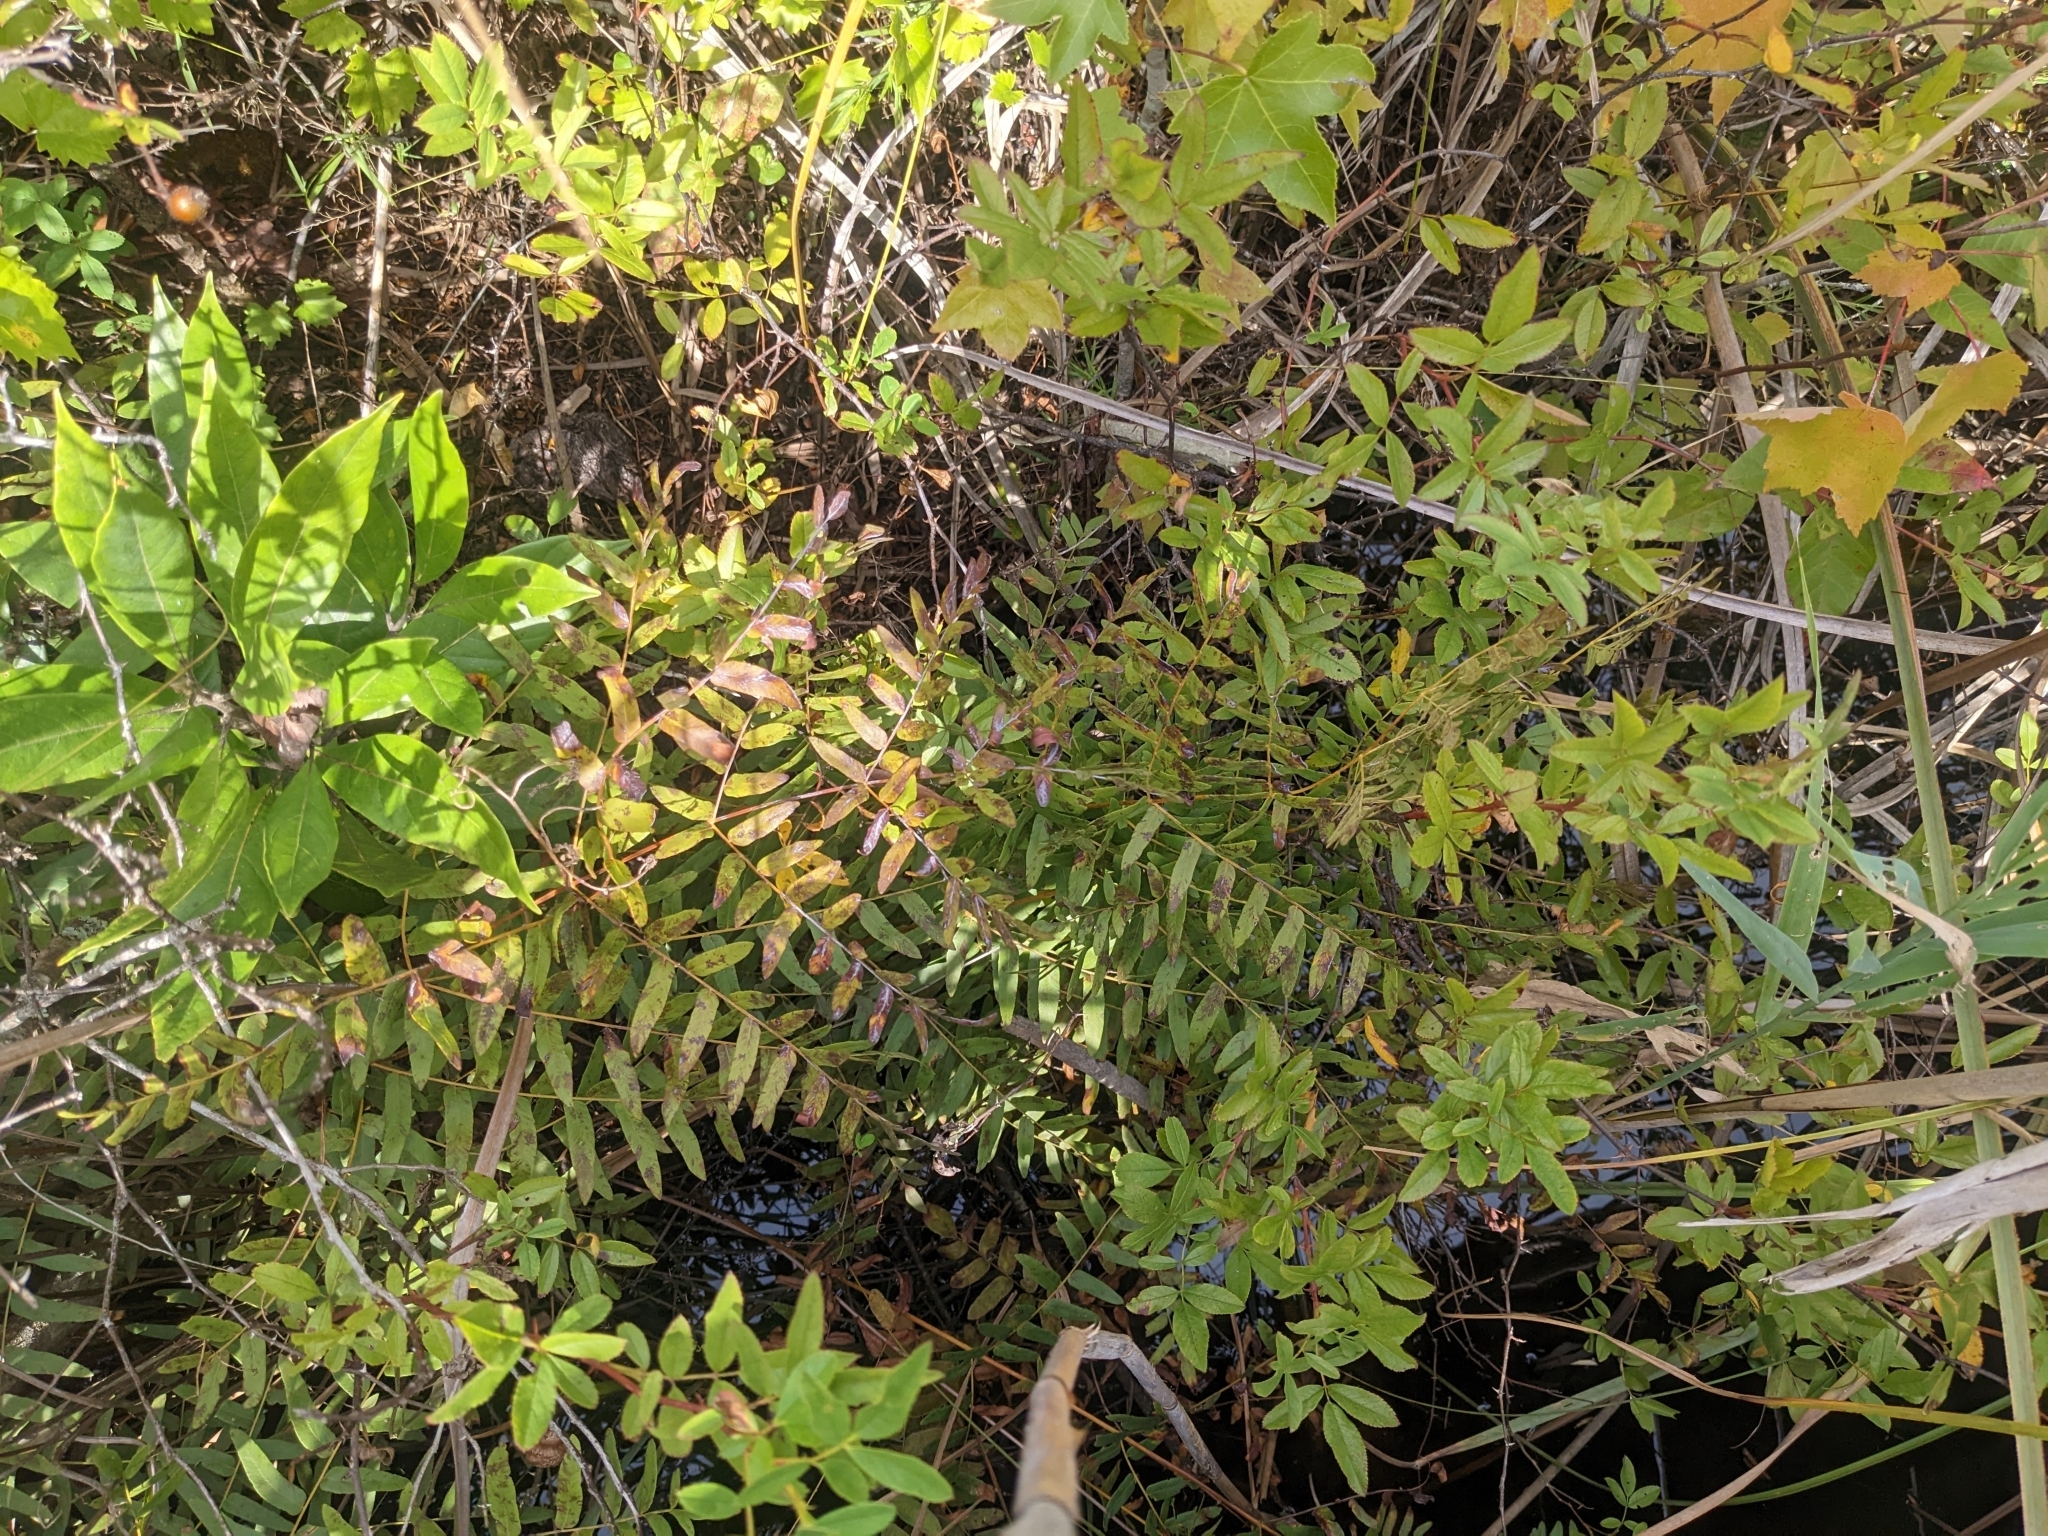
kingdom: Plantae
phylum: Tracheophyta
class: Polypodiopsida
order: Osmundales
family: Osmundaceae
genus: Osmunda
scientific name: Osmunda spectabilis
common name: American royal fern
